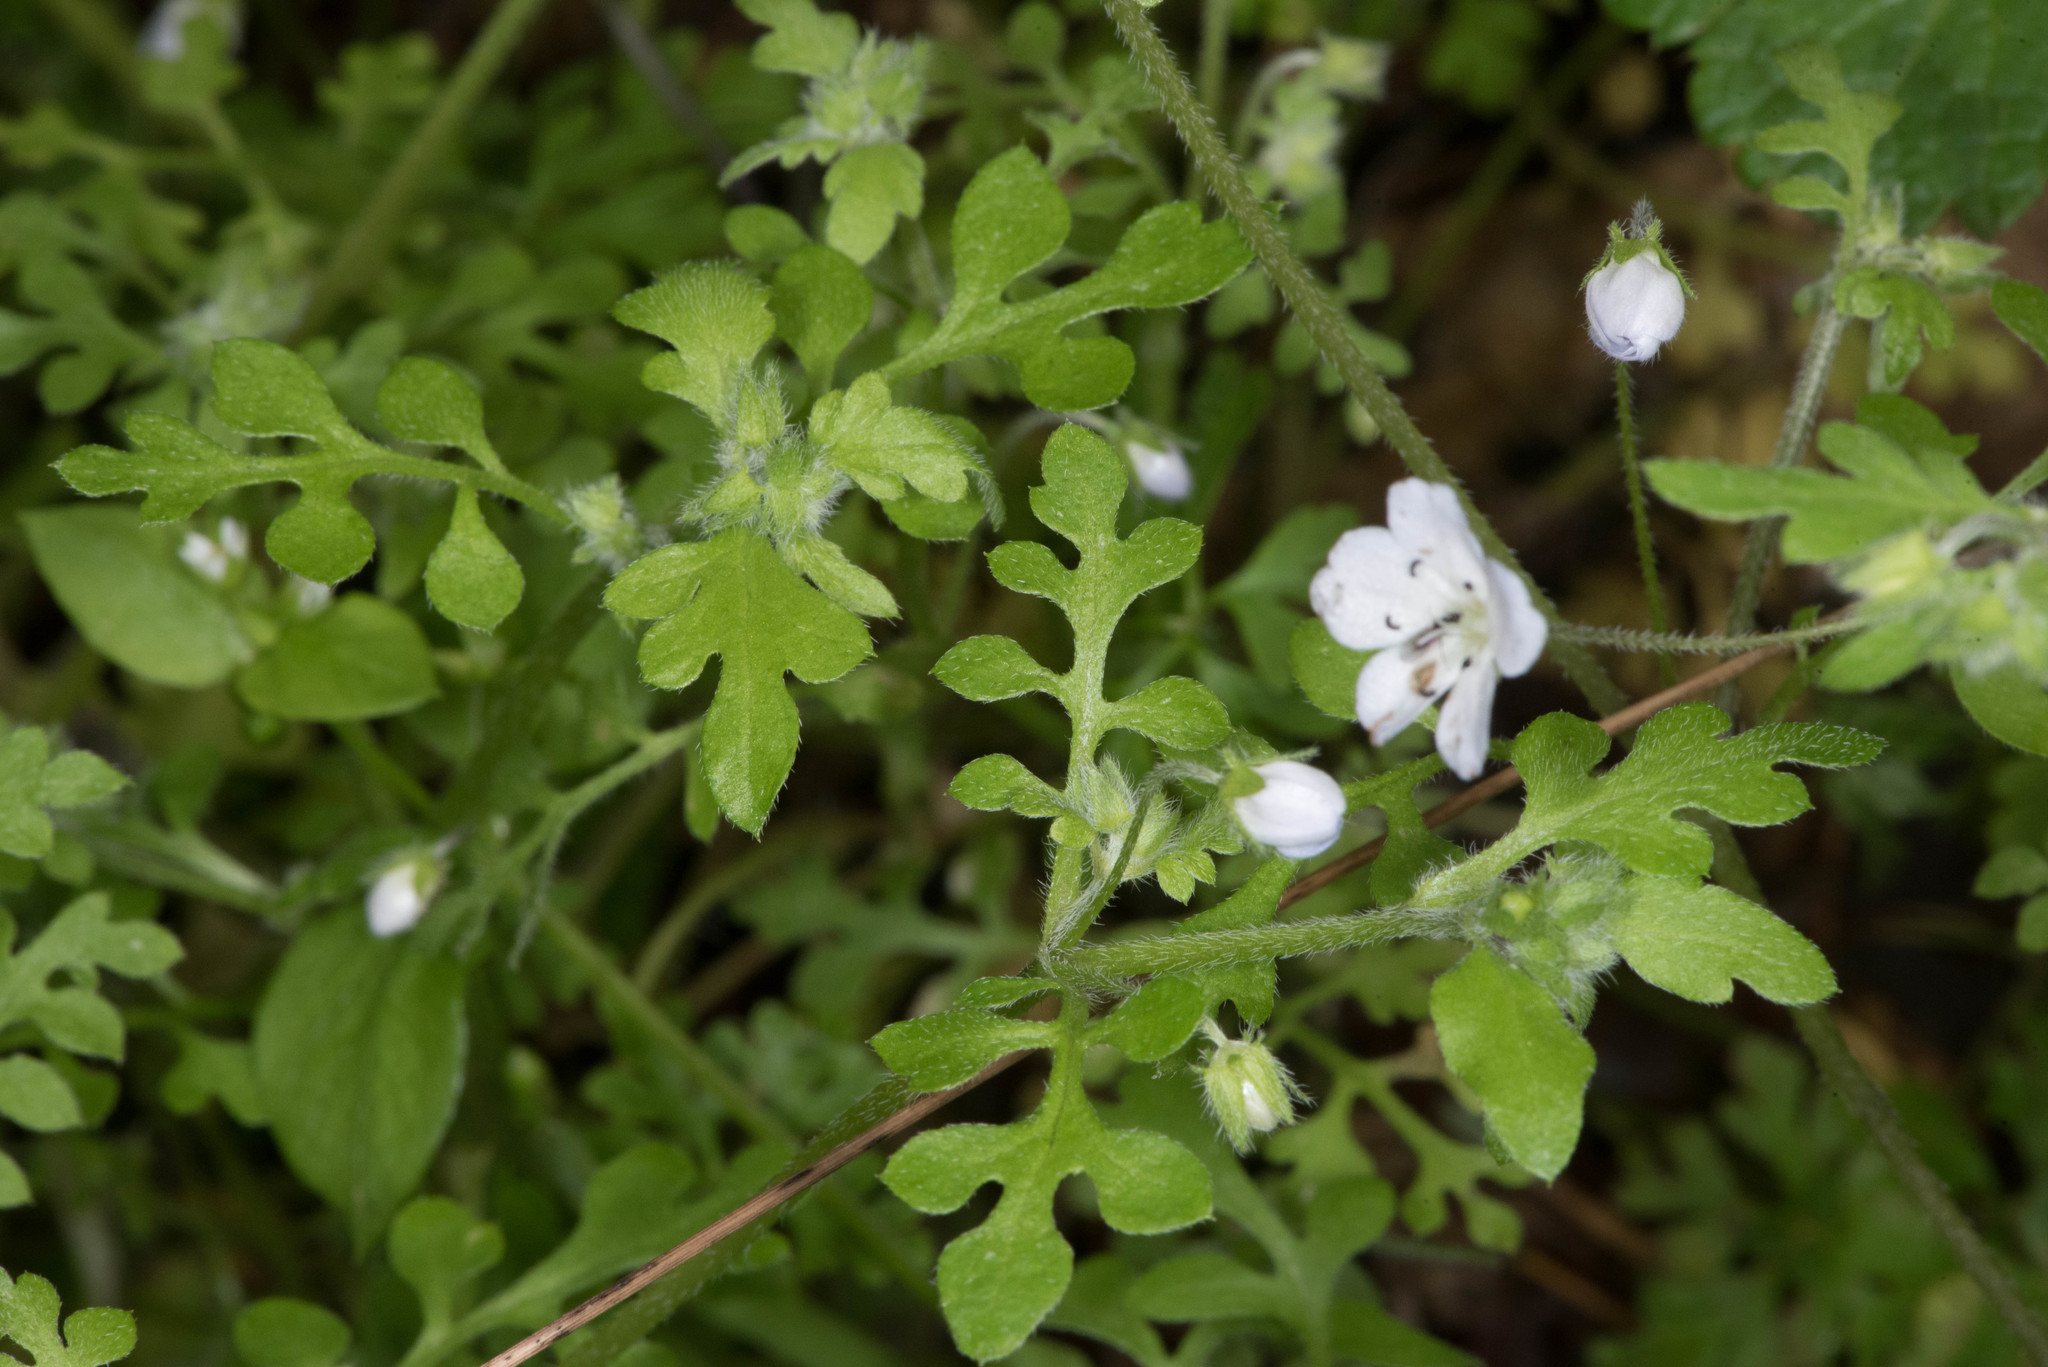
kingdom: Plantae
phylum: Tracheophyta
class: Magnoliopsida
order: Boraginales
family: Hydrophyllaceae
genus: Nemophila
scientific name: Nemophila heterophylla
